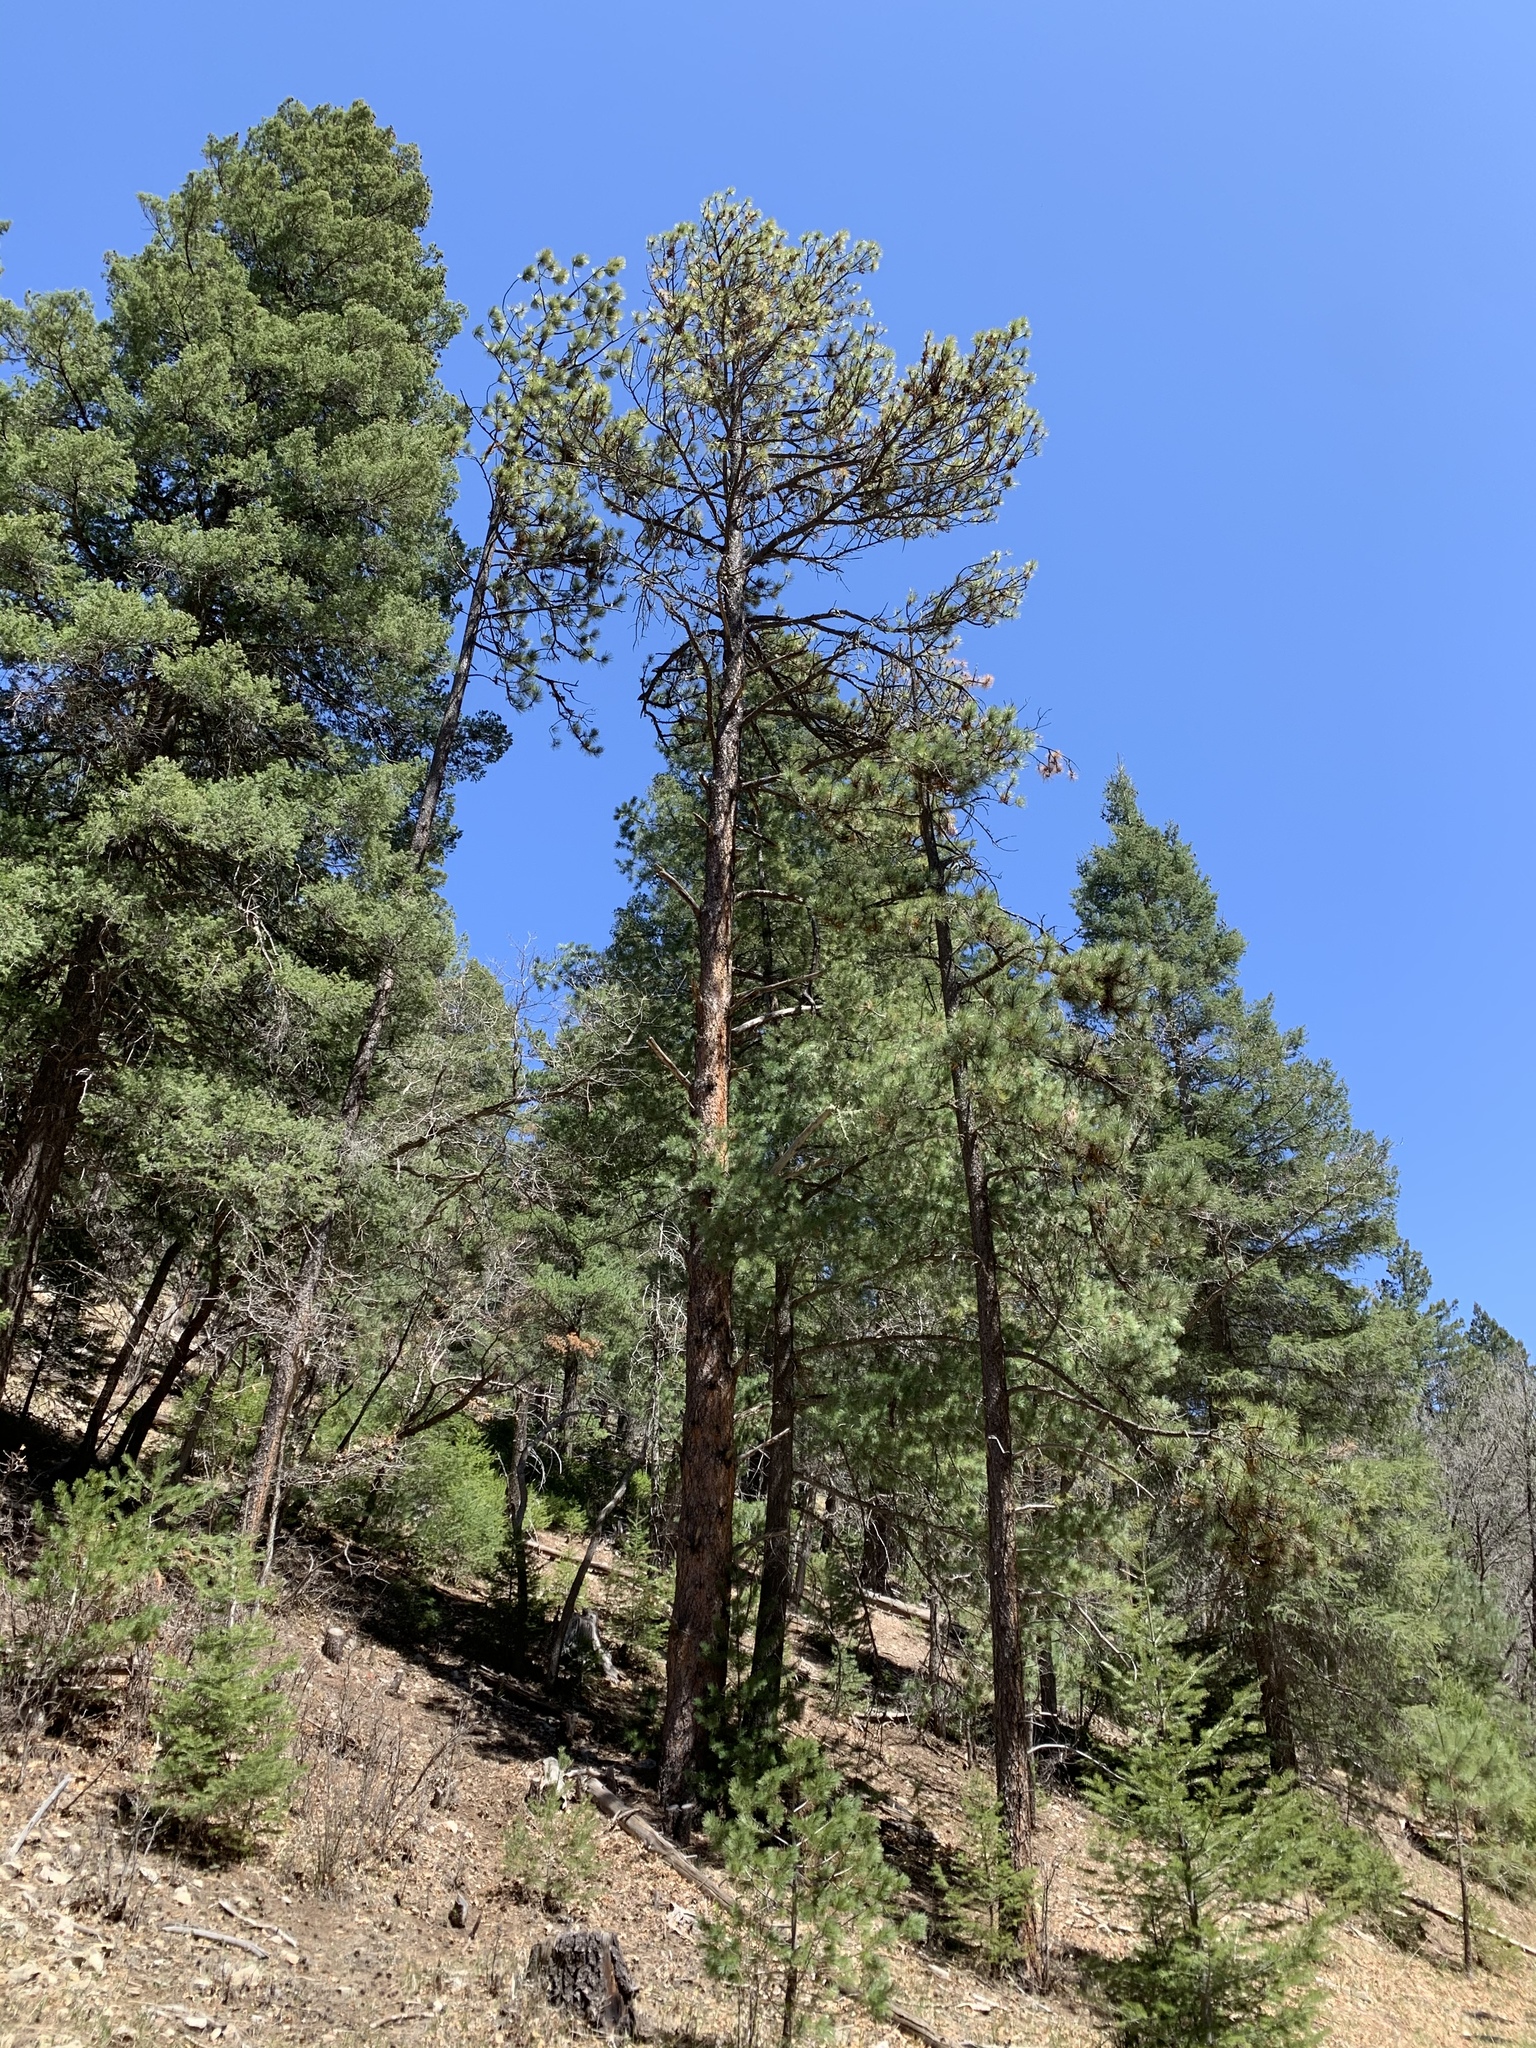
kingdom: Plantae
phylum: Tracheophyta
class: Pinopsida
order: Pinales
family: Pinaceae
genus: Pinus
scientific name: Pinus ponderosa
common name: Western yellow-pine
